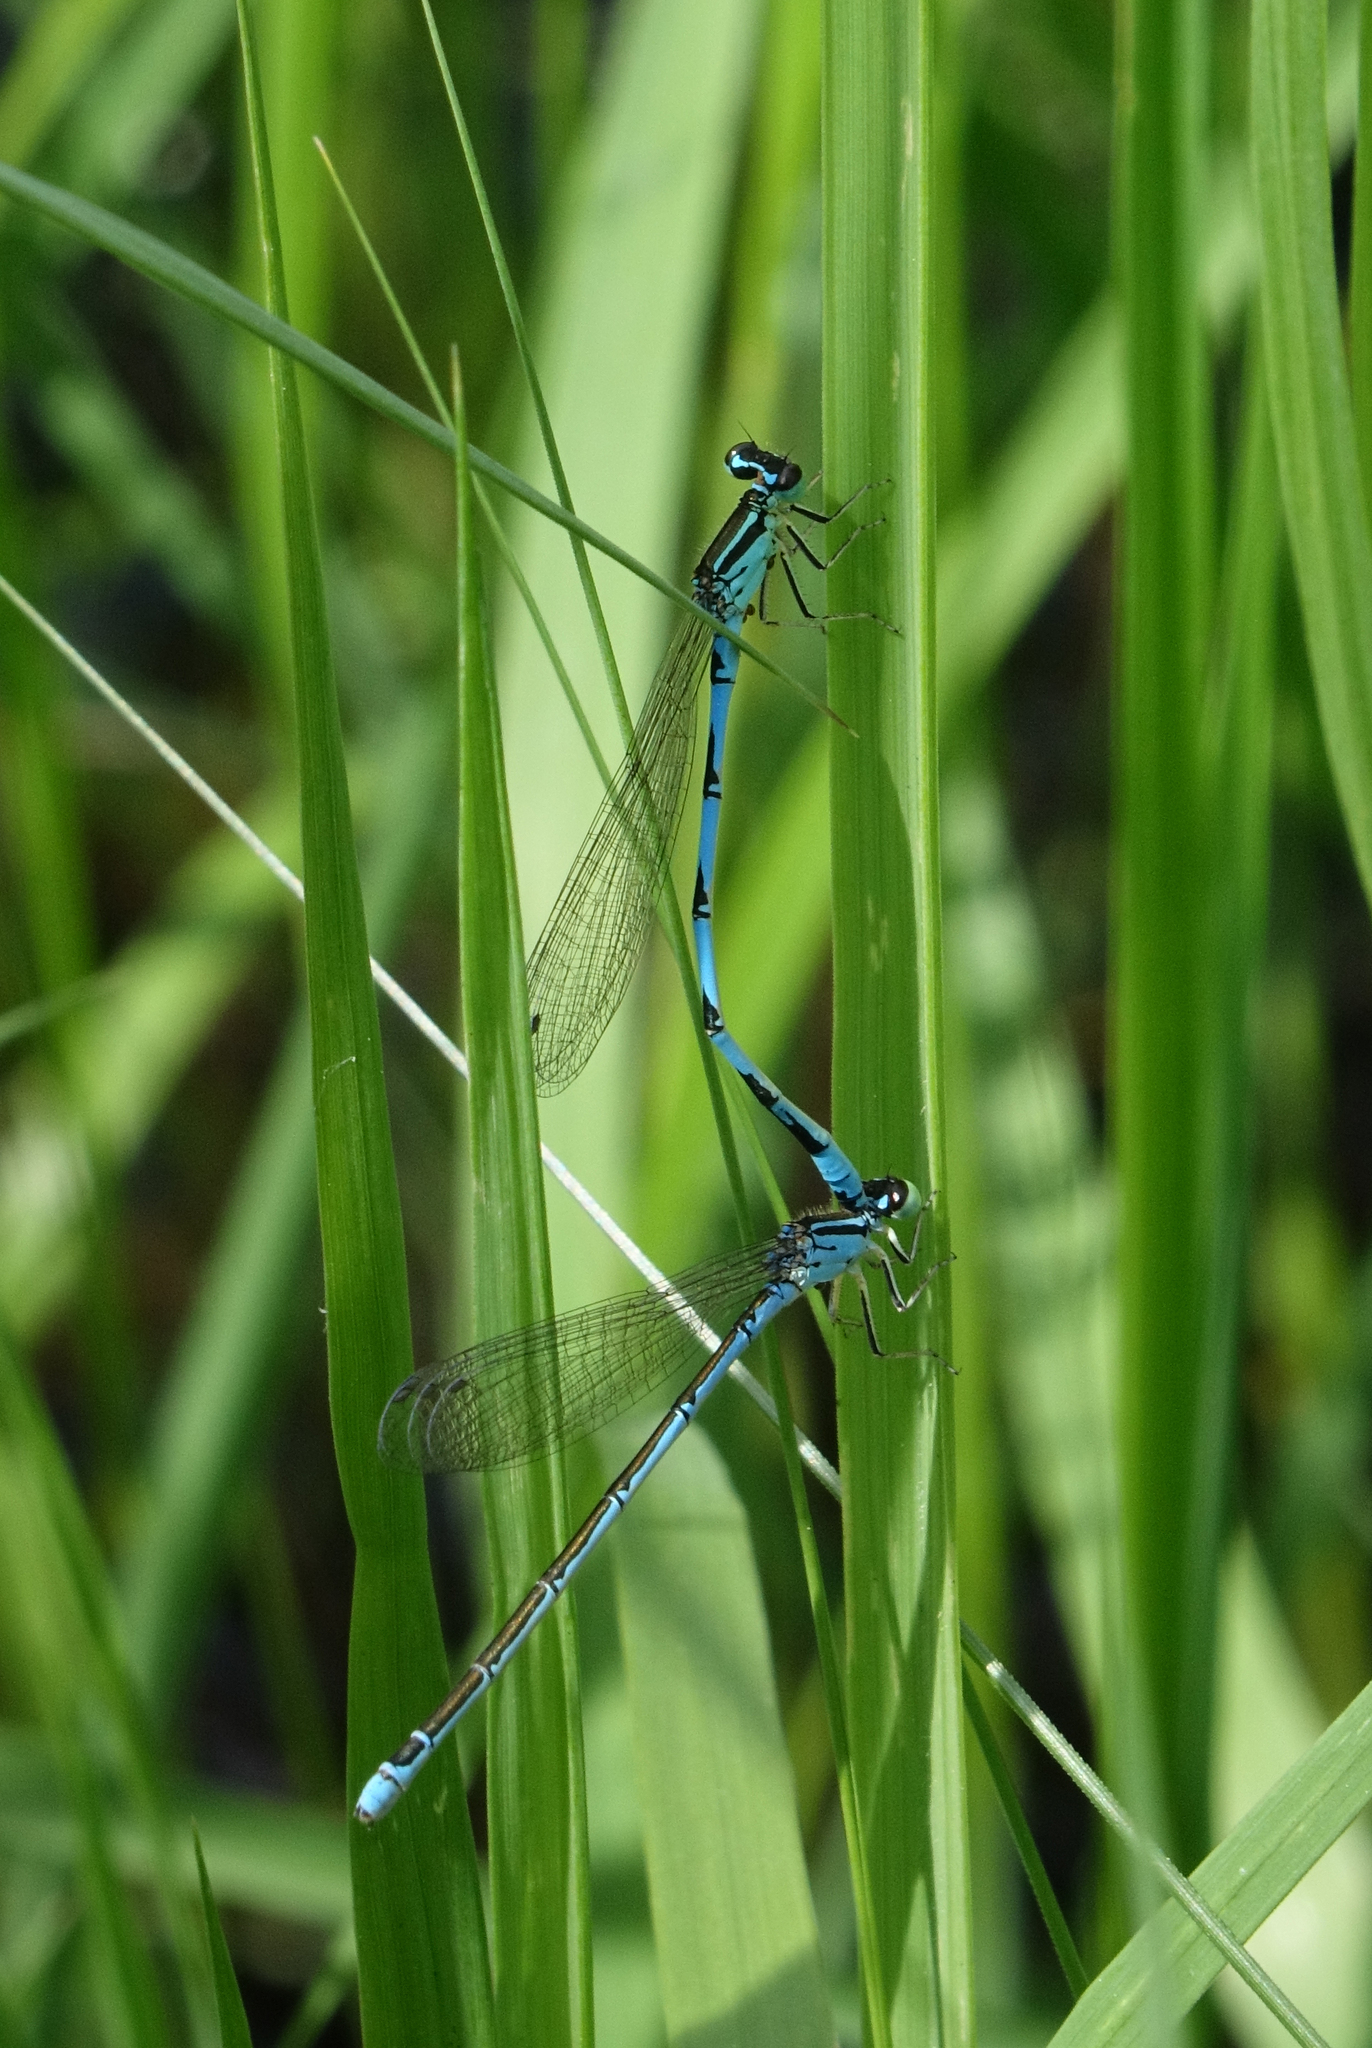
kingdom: Animalia
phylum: Arthropoda
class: Insecta
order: Odonata
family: Coenagrionidae
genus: Coenagrion
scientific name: Coenagrion ecornutum
